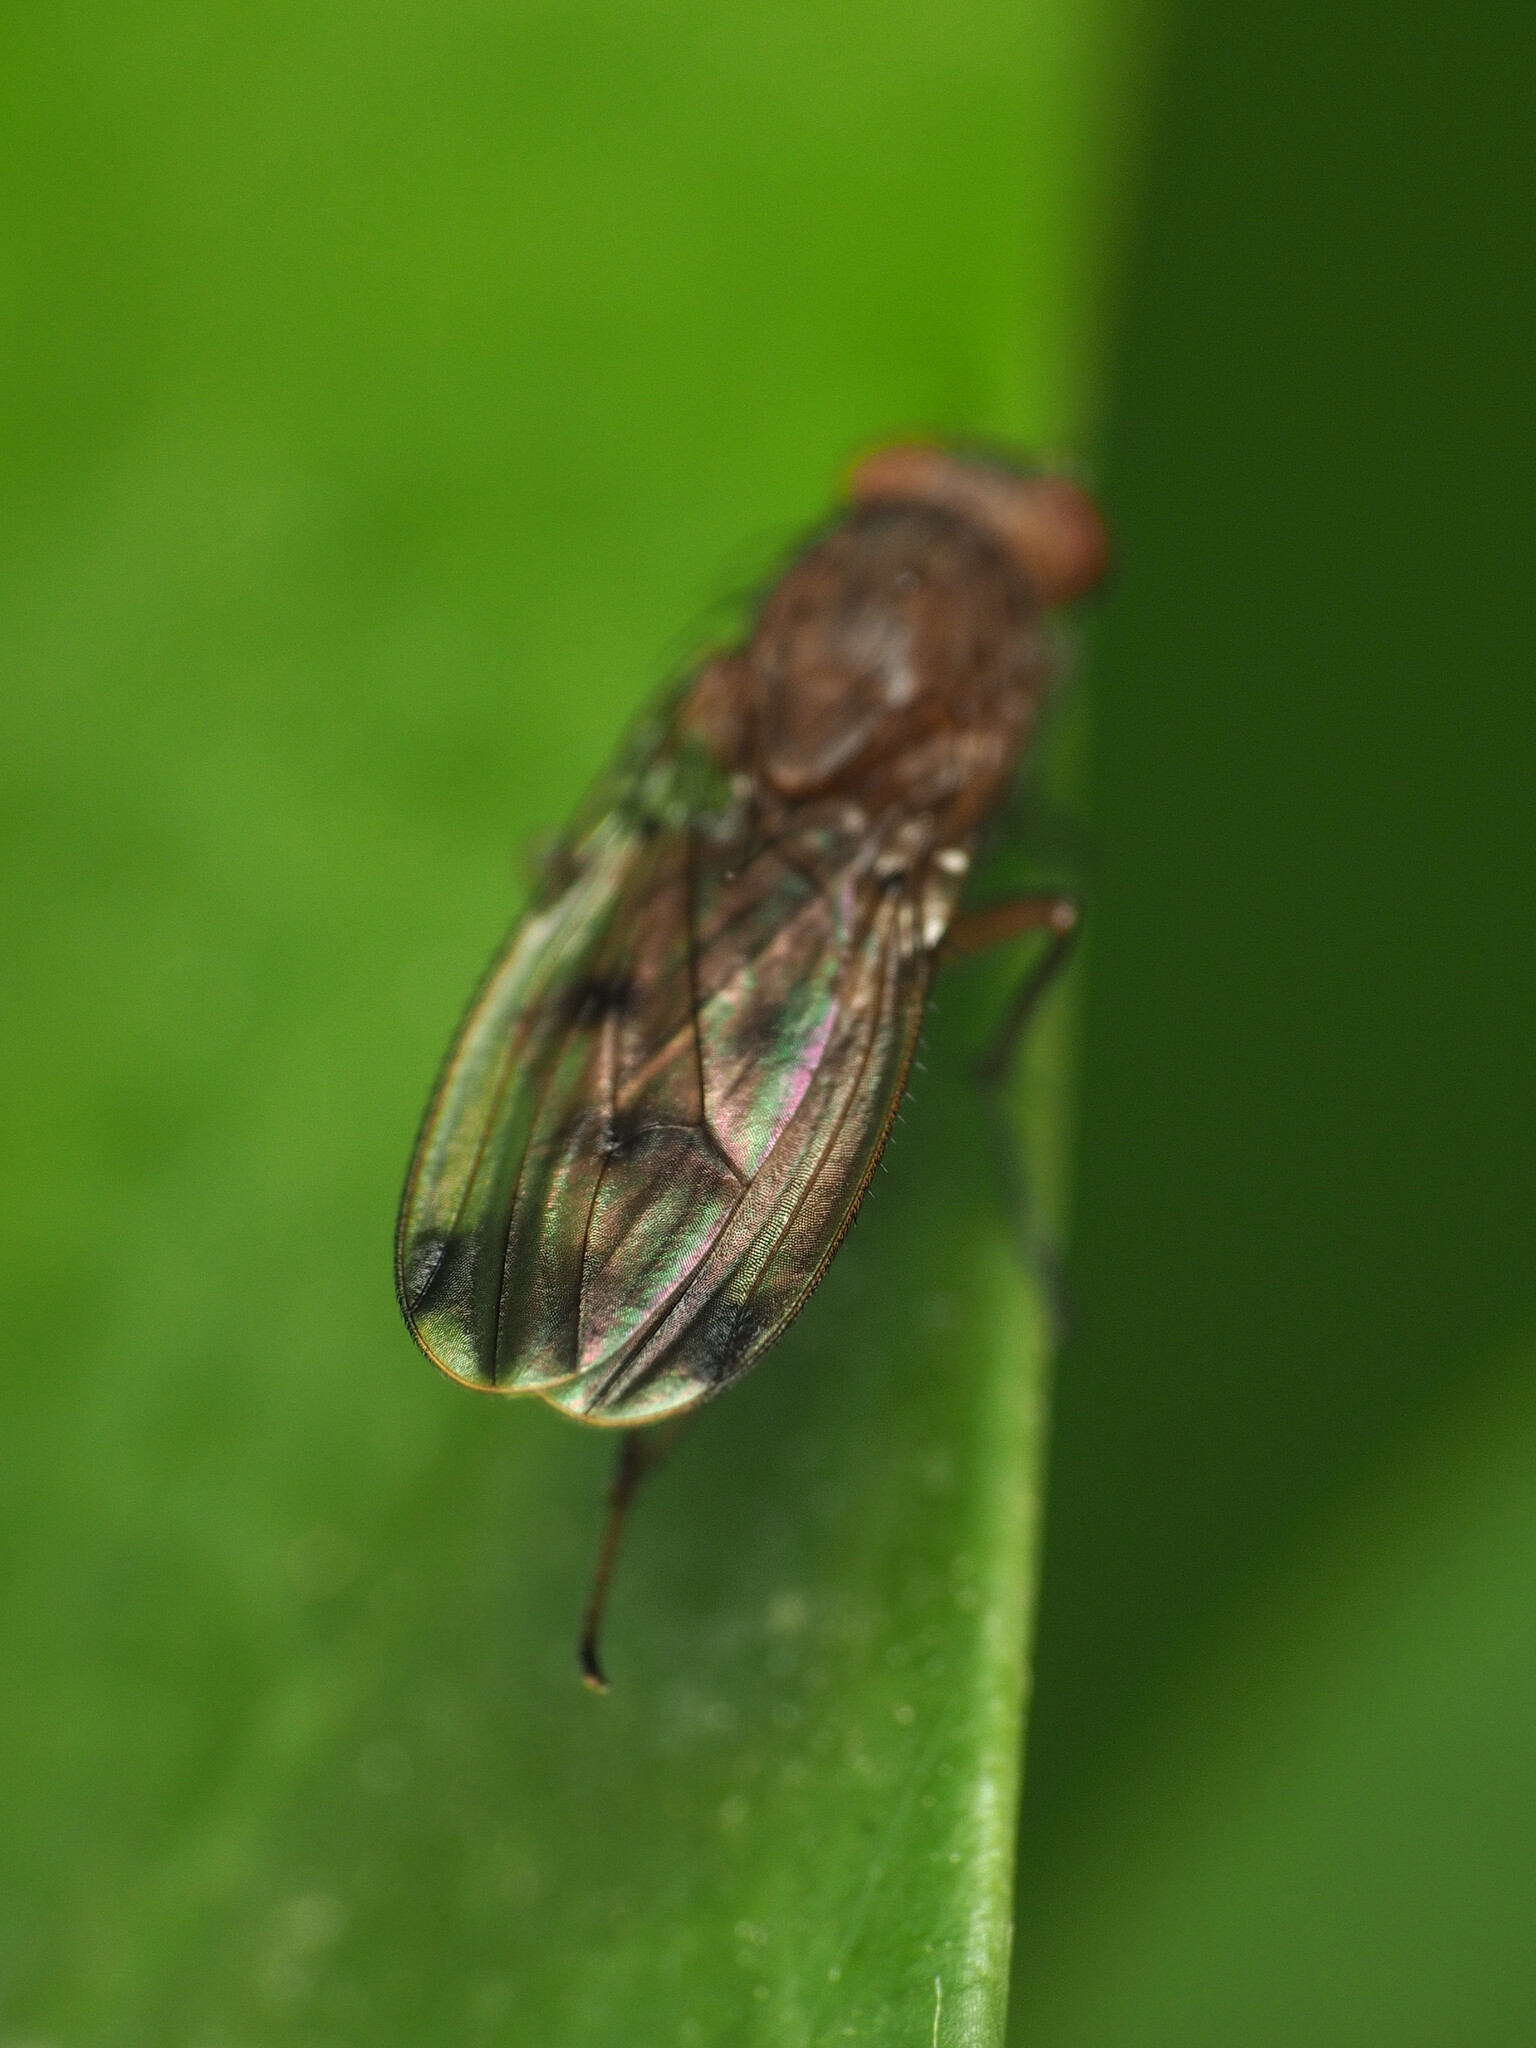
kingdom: Animalia
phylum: Arthropoda
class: Insecta
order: Diptera
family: Heleomyzidae
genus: Suillia
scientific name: Suillia variegata
